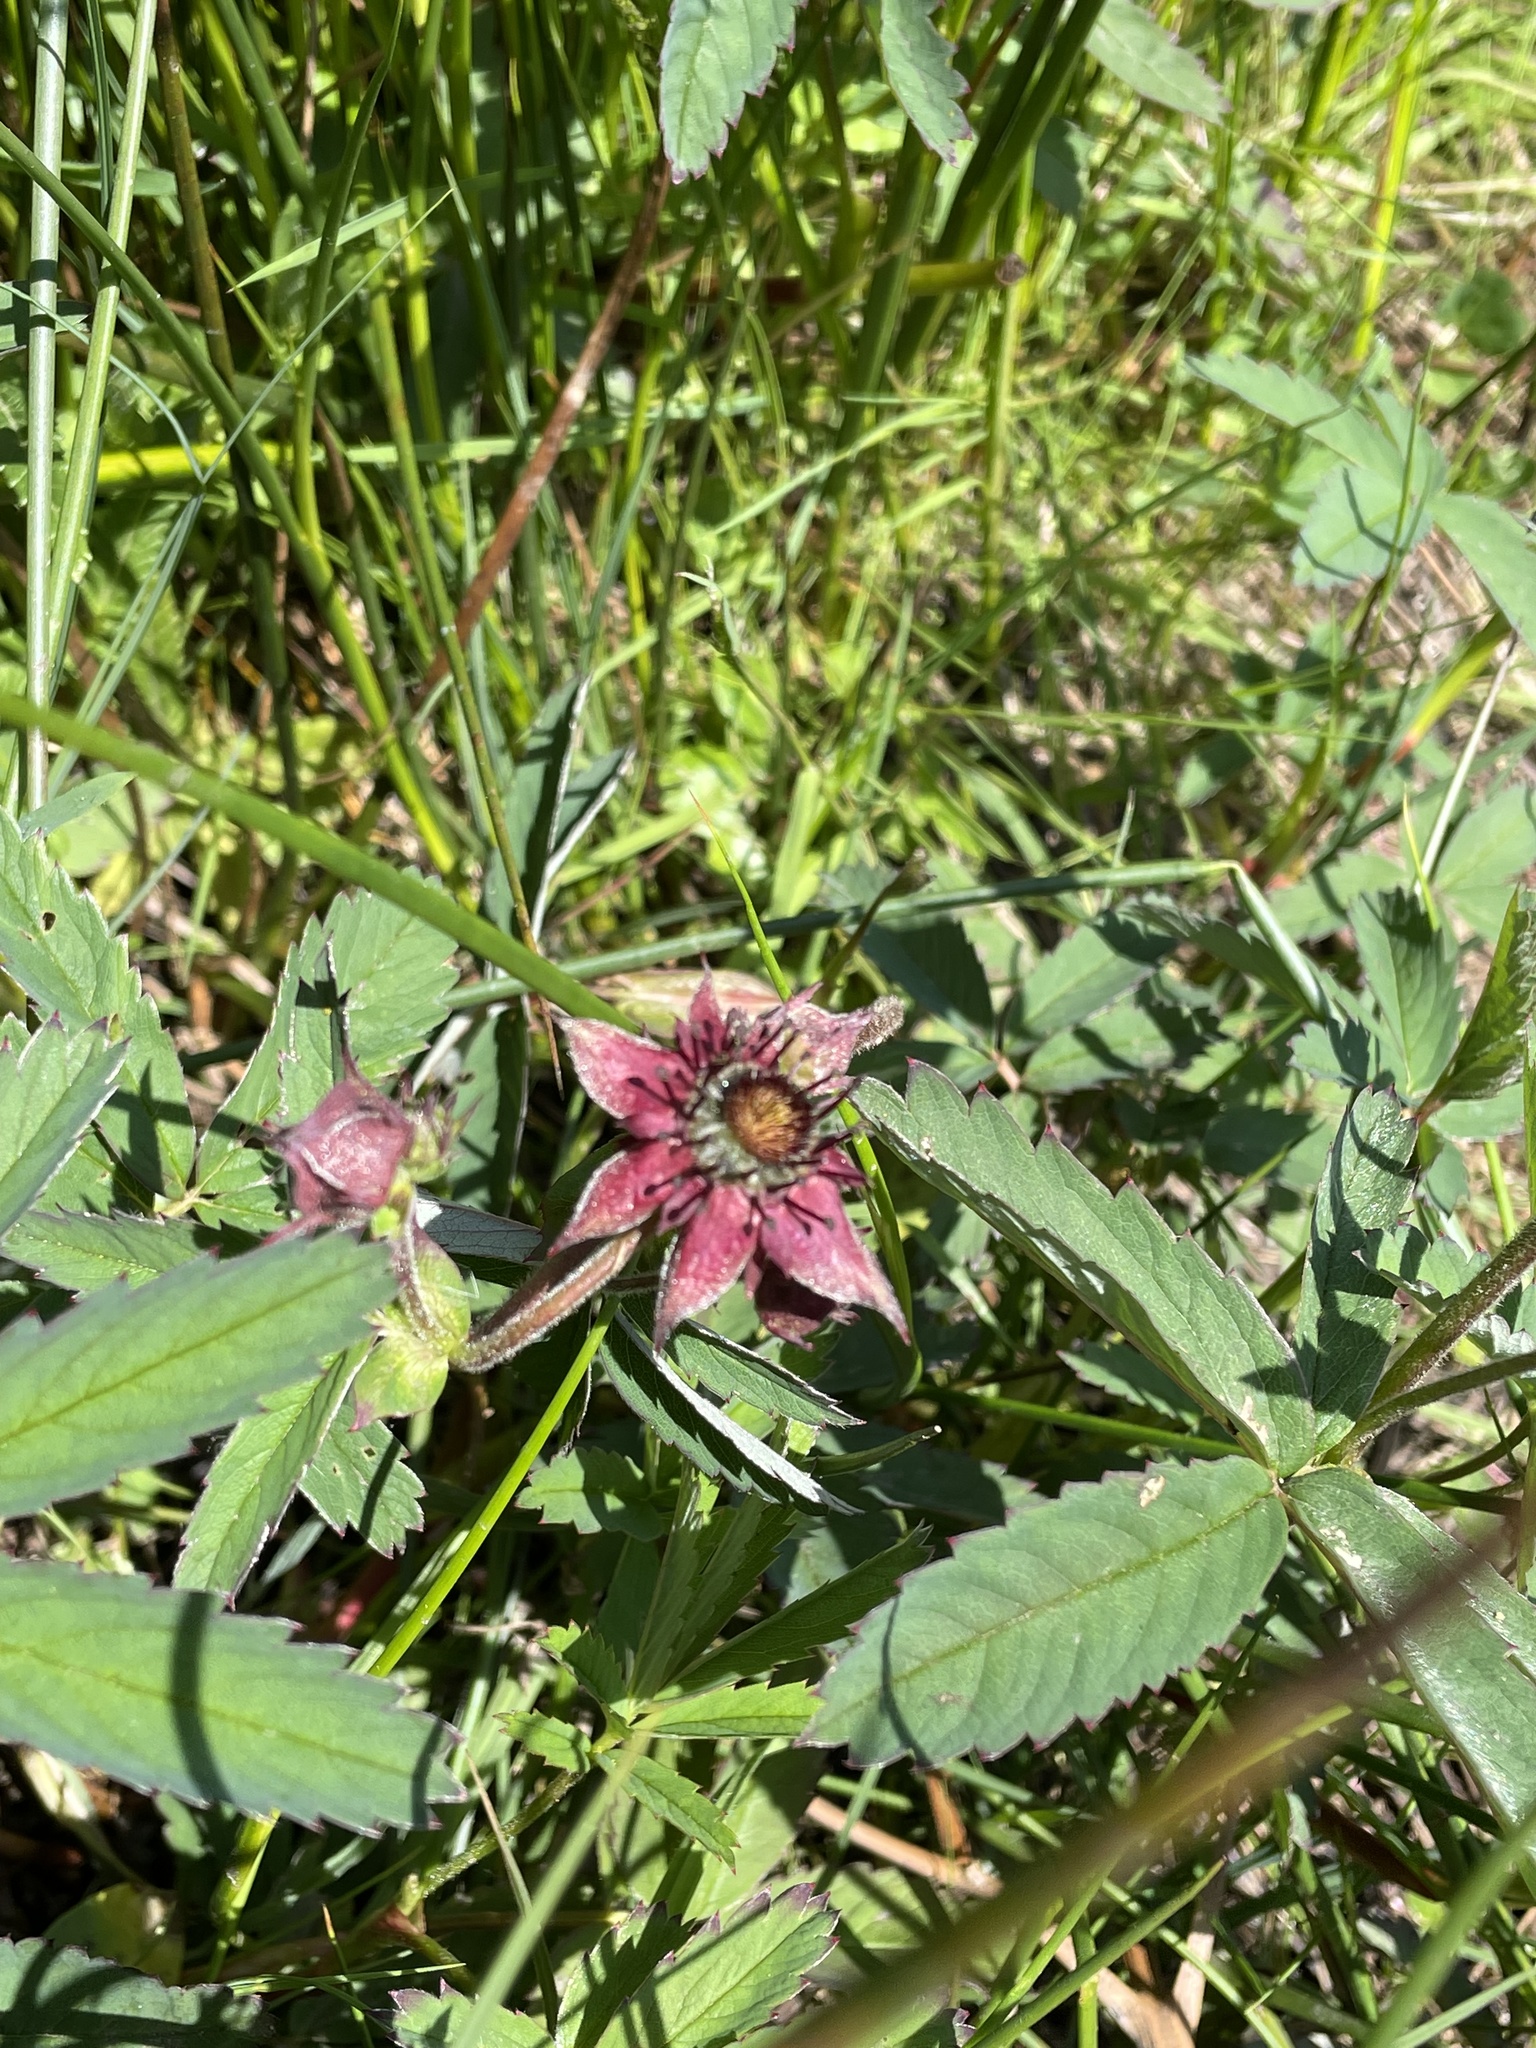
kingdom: Plantae
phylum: Tracheophyta
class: Magnoliopsida
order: Rosales
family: Rosaceae
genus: Comarum
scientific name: Comarum palustre
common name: Marsh cinquefoil
